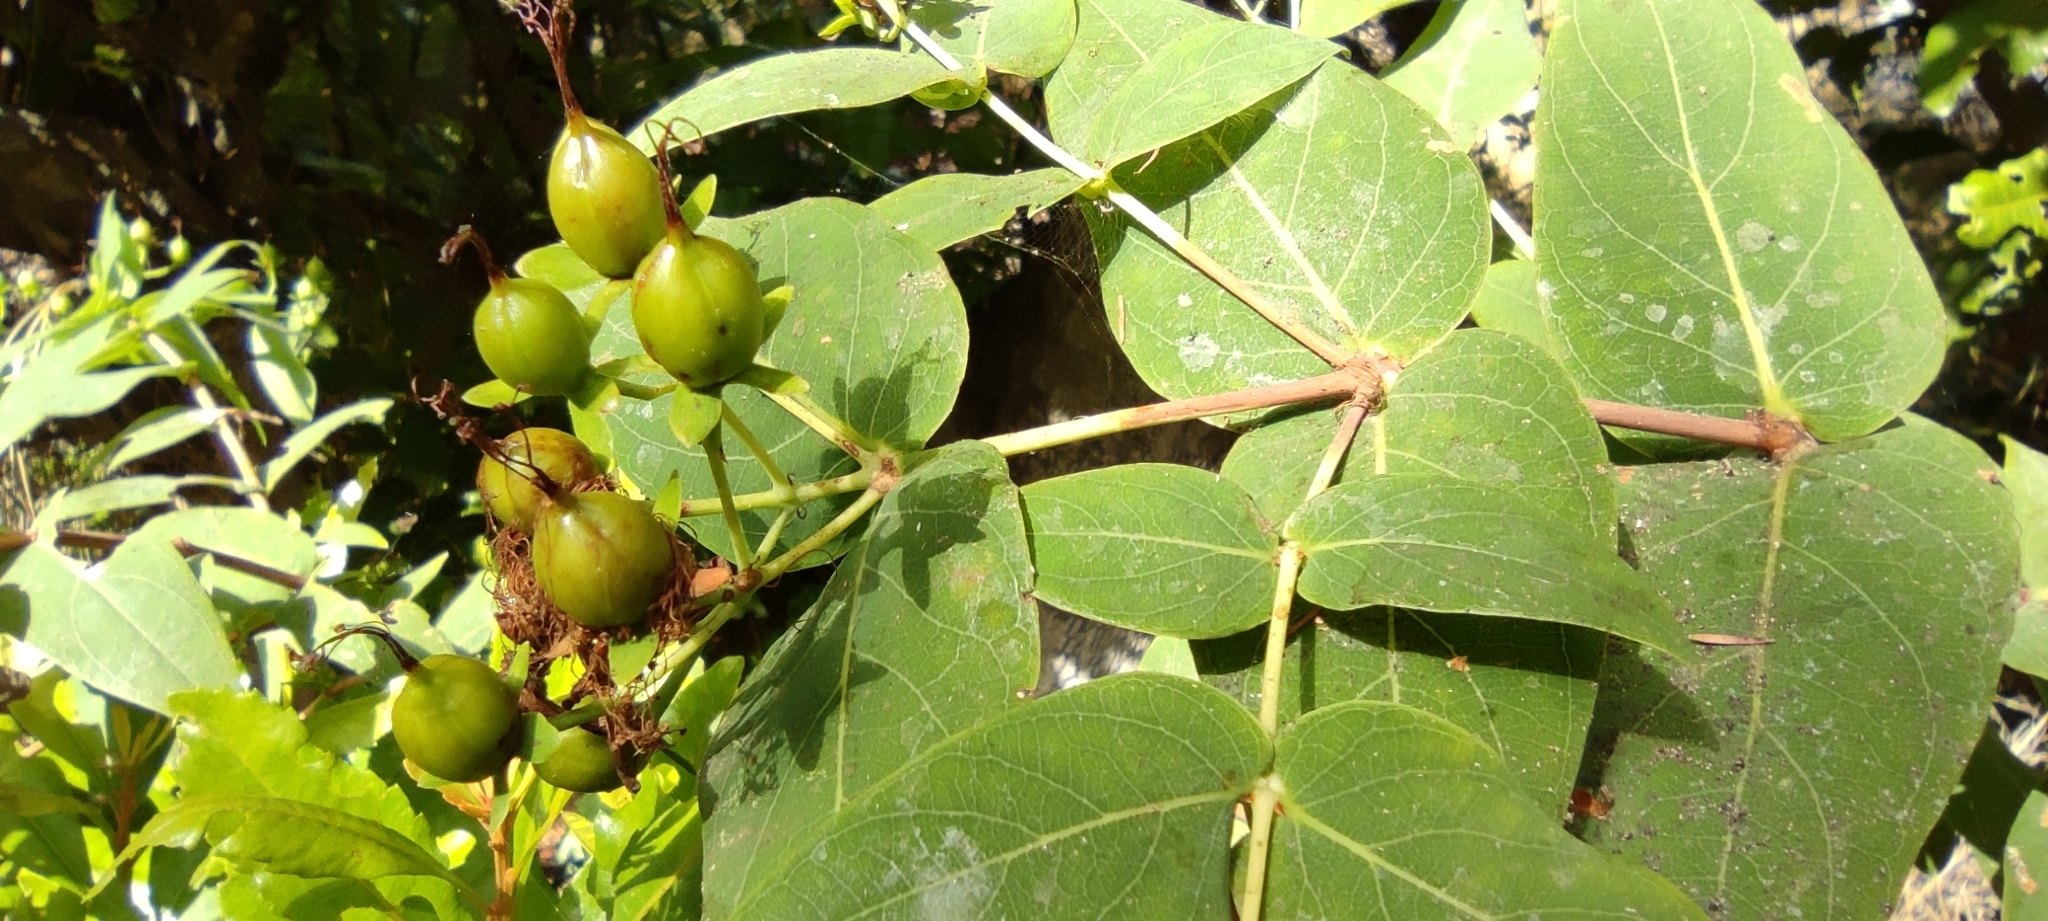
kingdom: Plantae
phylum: Tracheophyta
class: Magnoliopsida
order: Malpighiales
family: Hypericaceae
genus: Hypericum
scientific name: Hypericum grandifolium
